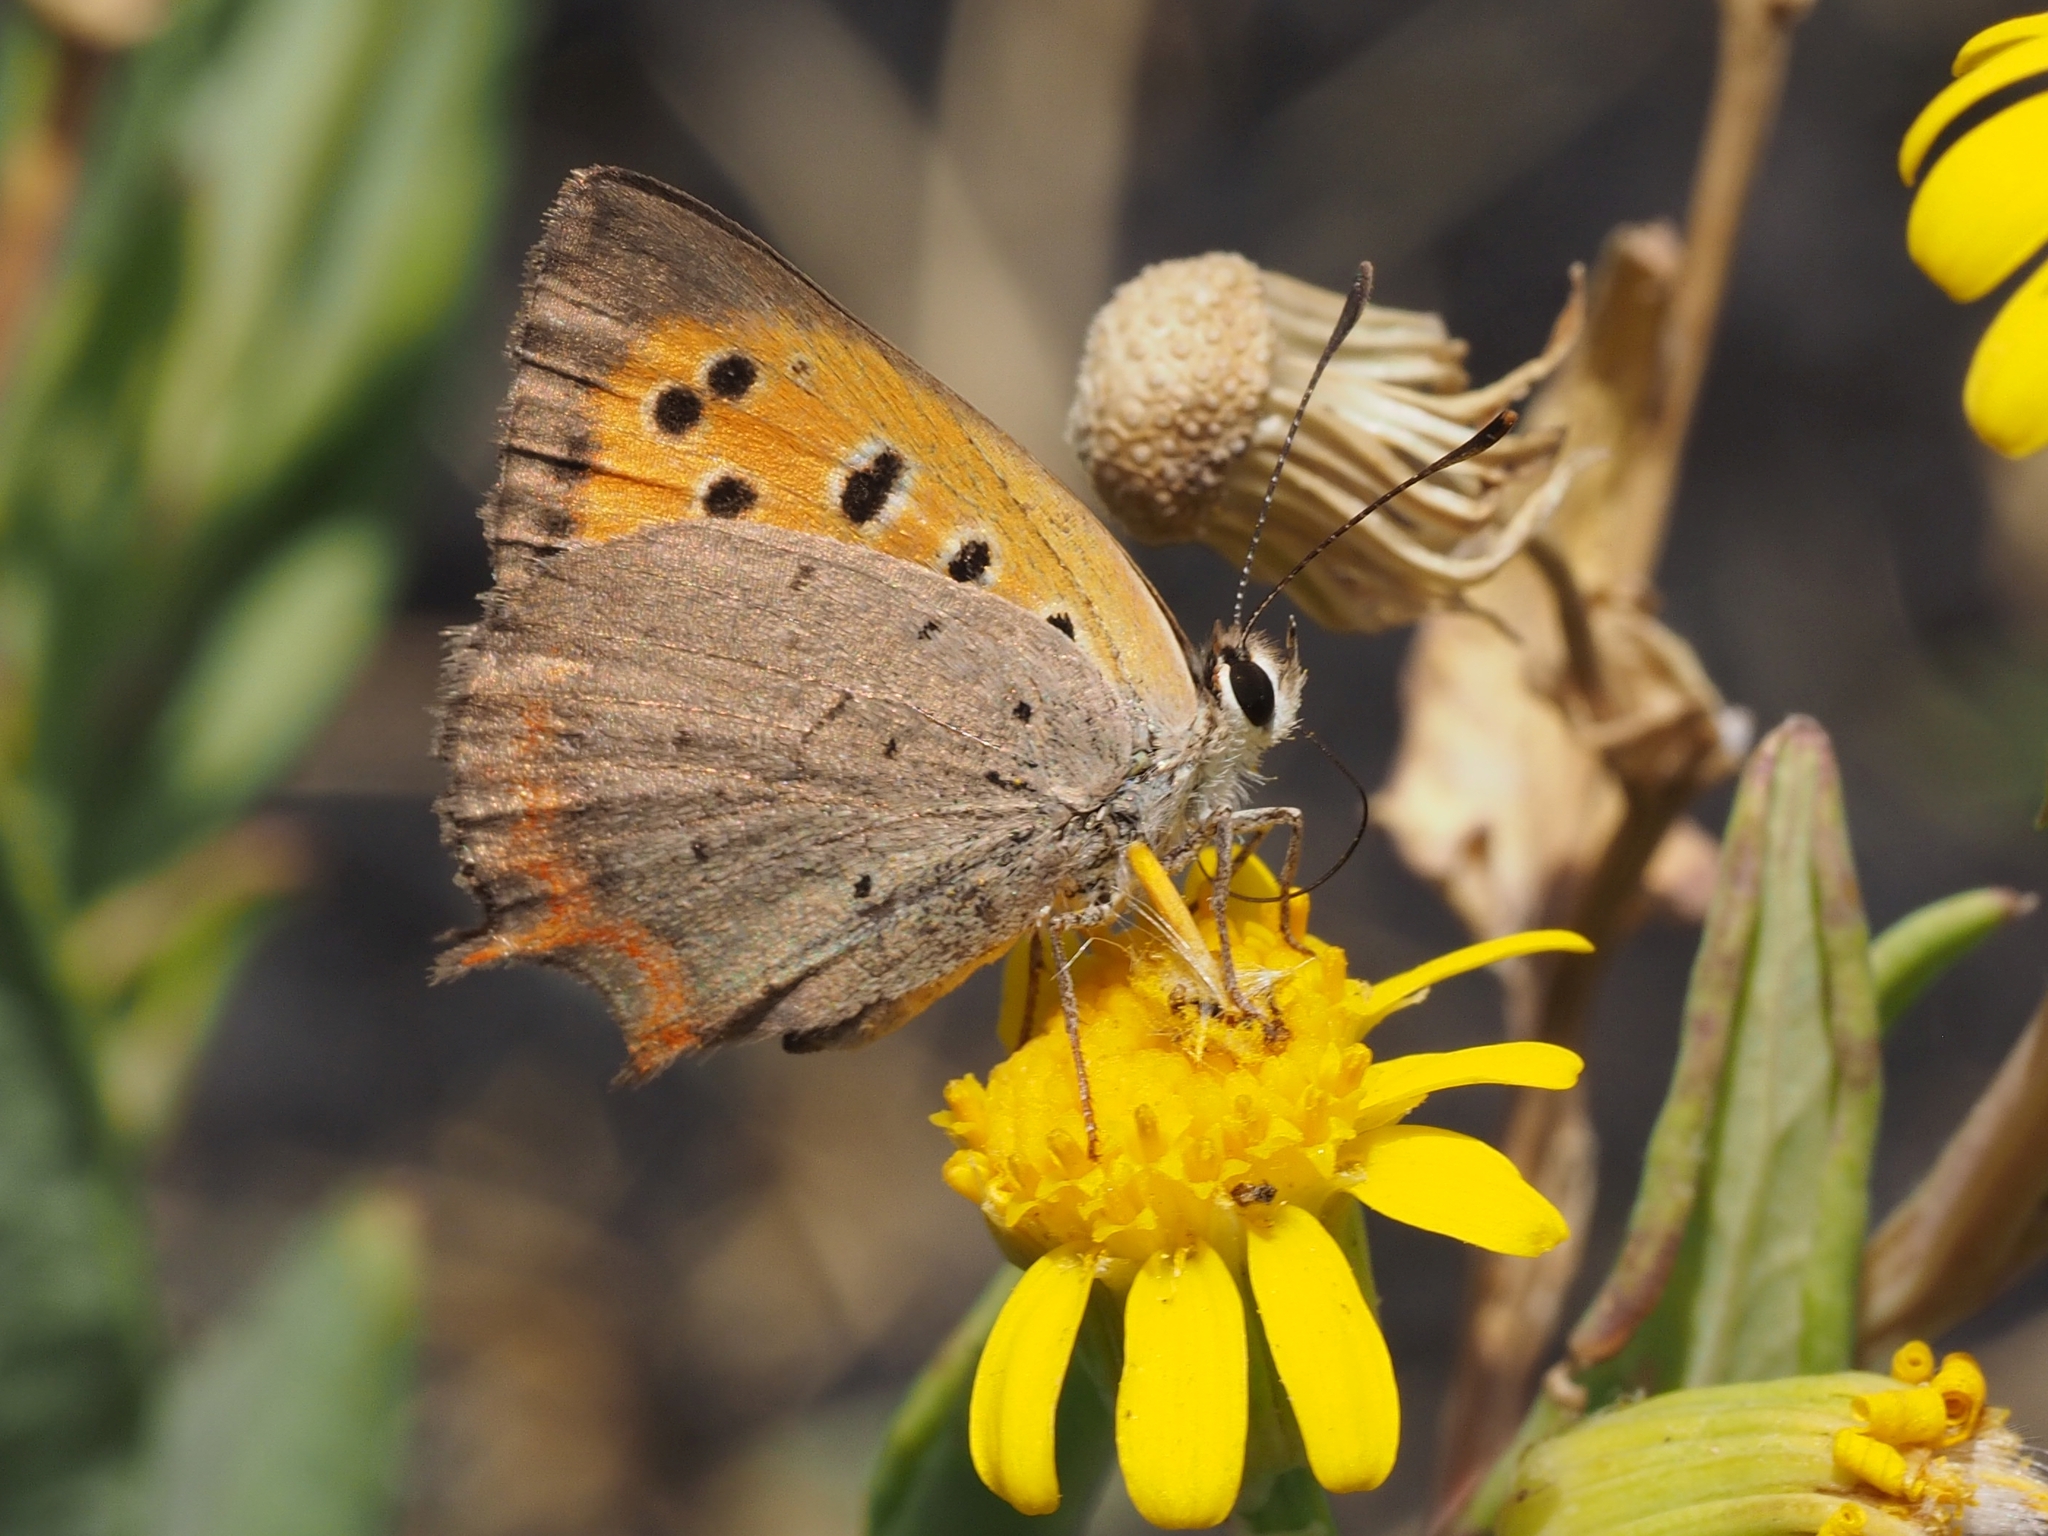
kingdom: Animalia
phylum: Arthropoda
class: Insecta
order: Lepidoptera
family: Lycaenidae
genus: Lycaena
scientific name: Lycaena phlaeas
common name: Small copper
